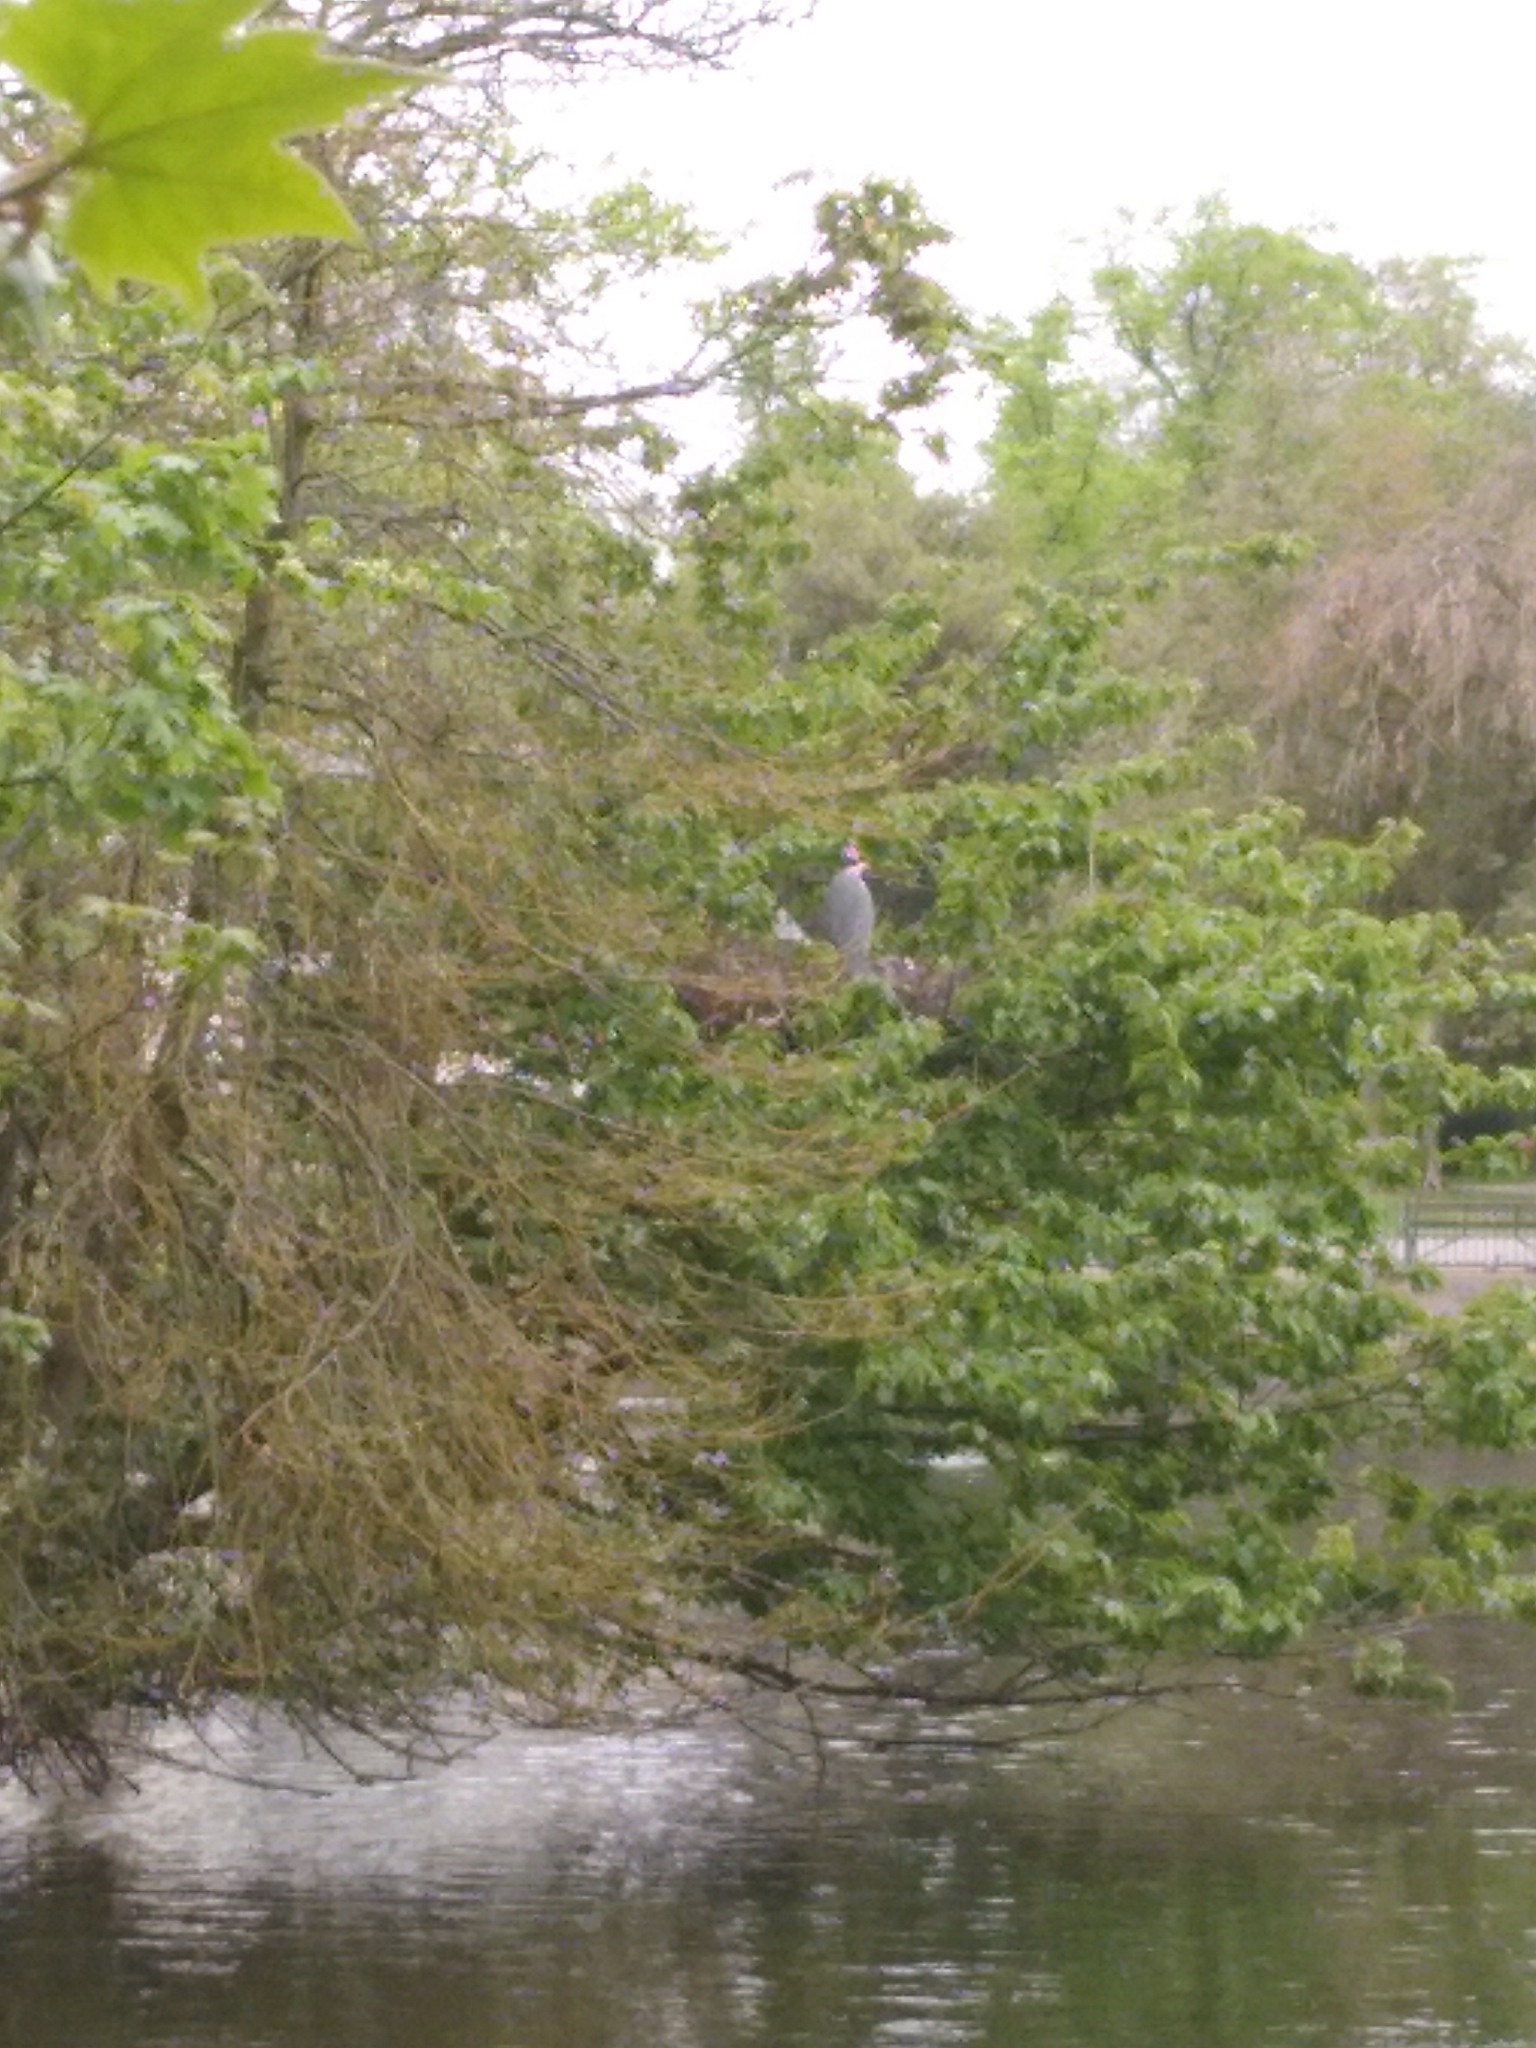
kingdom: Animalia
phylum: Chordata
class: Aves
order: Pelecaniformes
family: Ardeidae
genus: Ardea
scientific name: Ardea cinerea
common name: Grey heron
